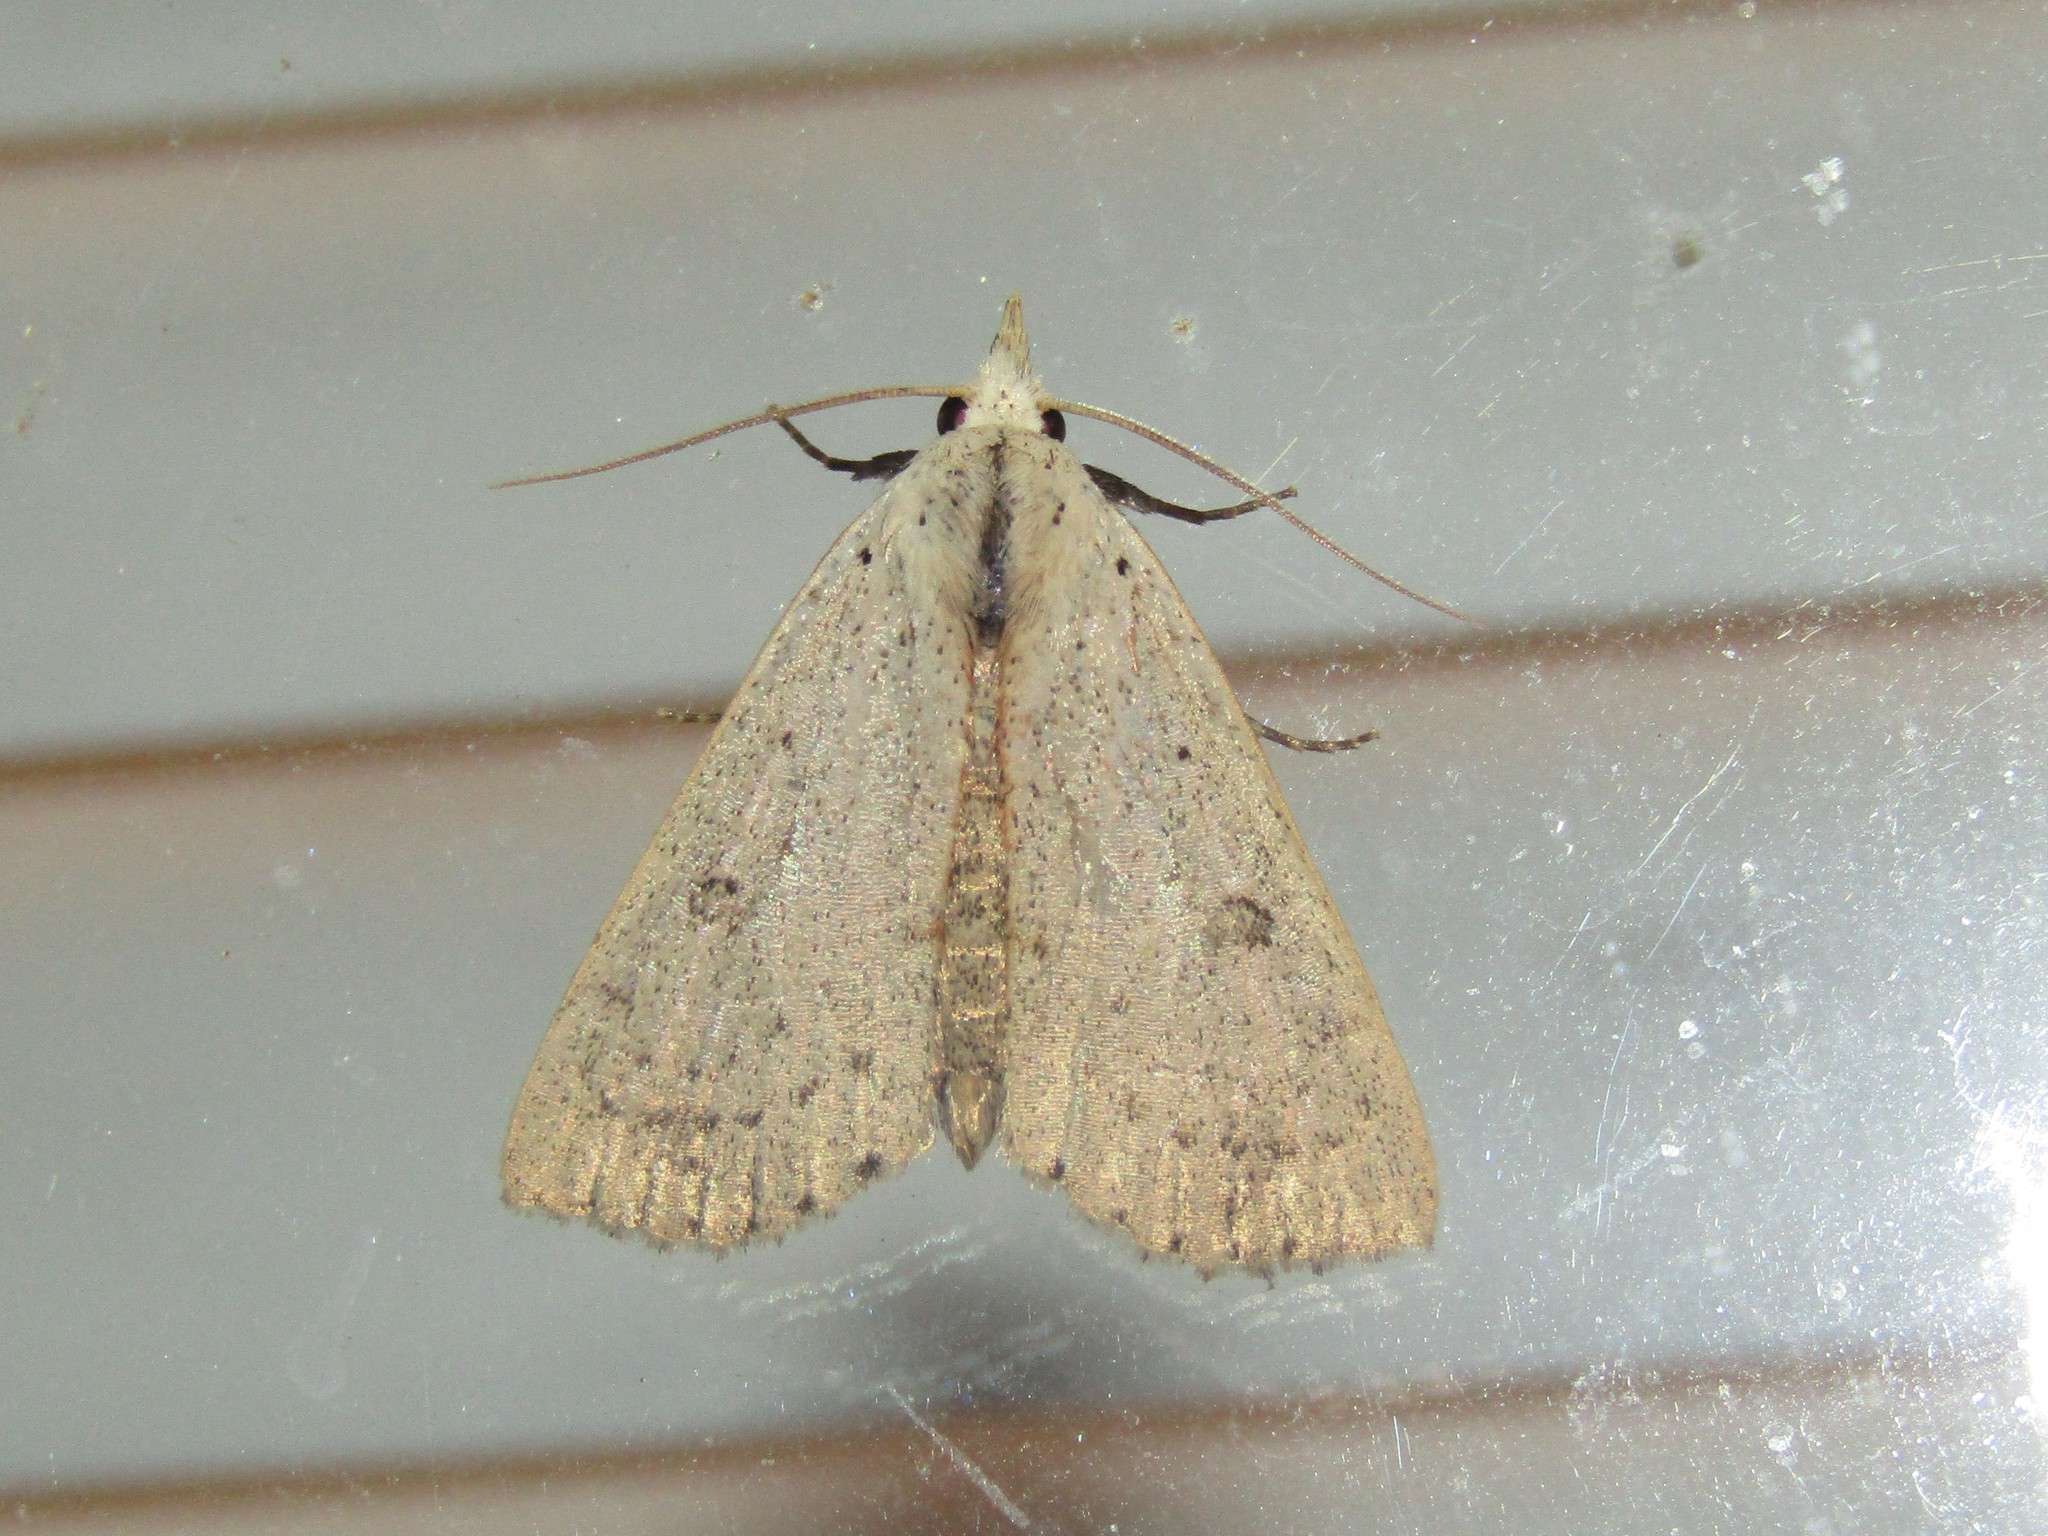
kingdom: Animalia
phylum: Arthropoda
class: Insecta
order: Lepidoptera
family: Erebidae
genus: Scolecocampa
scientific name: Scolecocampa liburna
